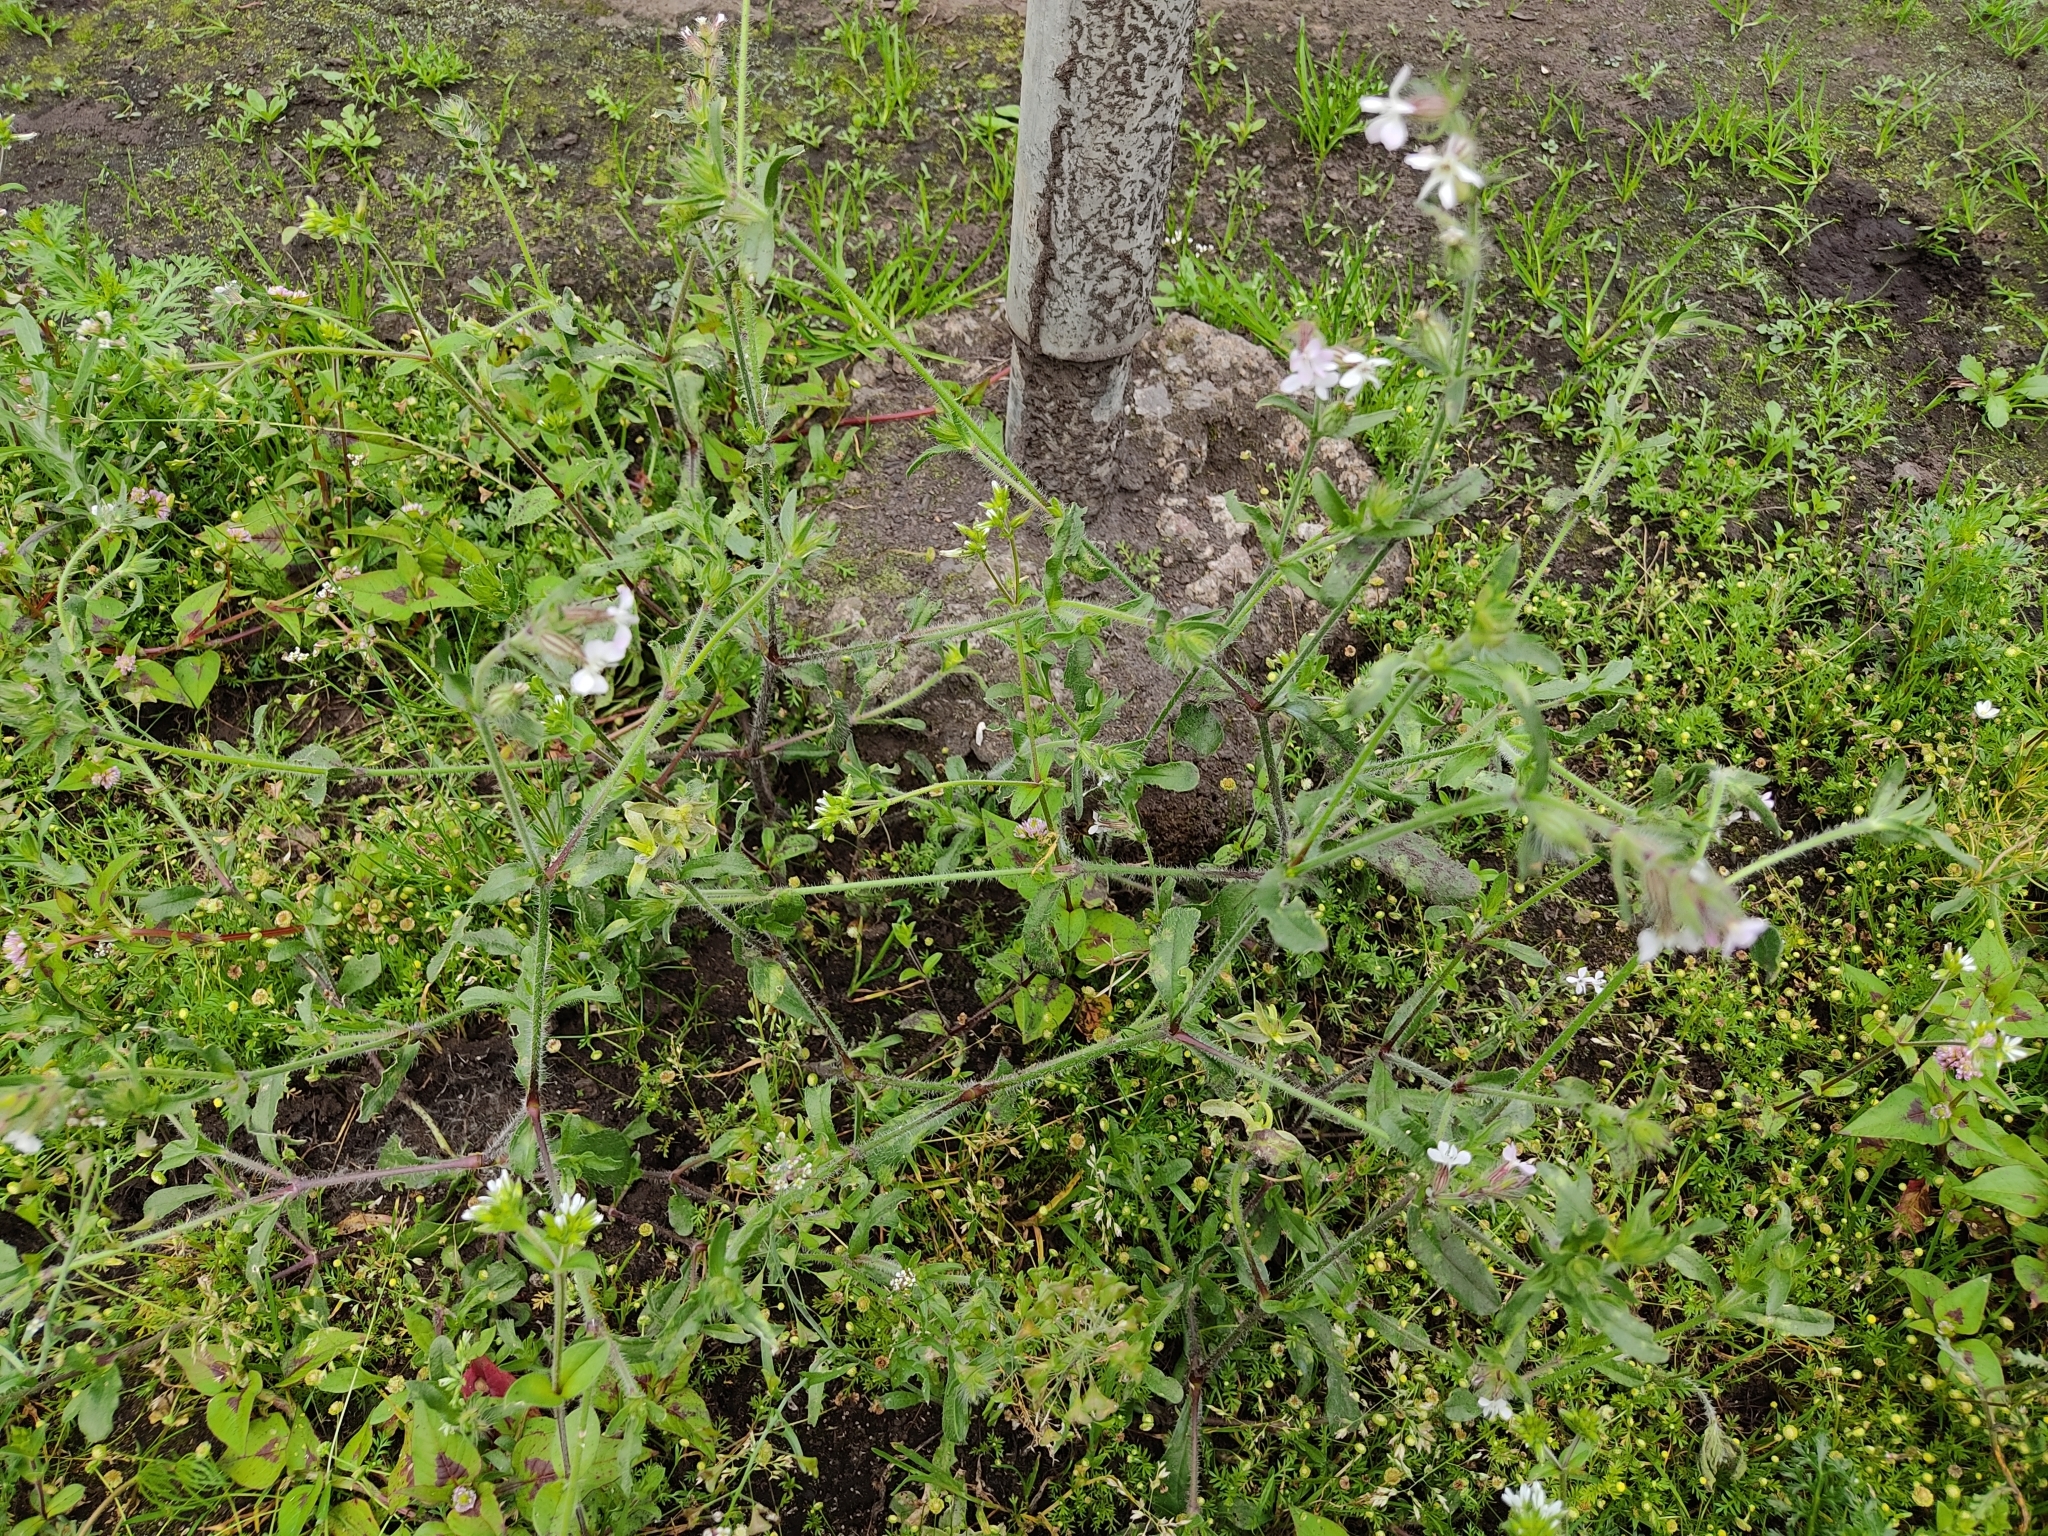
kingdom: Plantae
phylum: Tracheophyta
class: Magnoliopsida
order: Caryophyllales
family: Caryophyllaceae
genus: Silene
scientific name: Silene gallica
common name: Small-flowered catchfly
